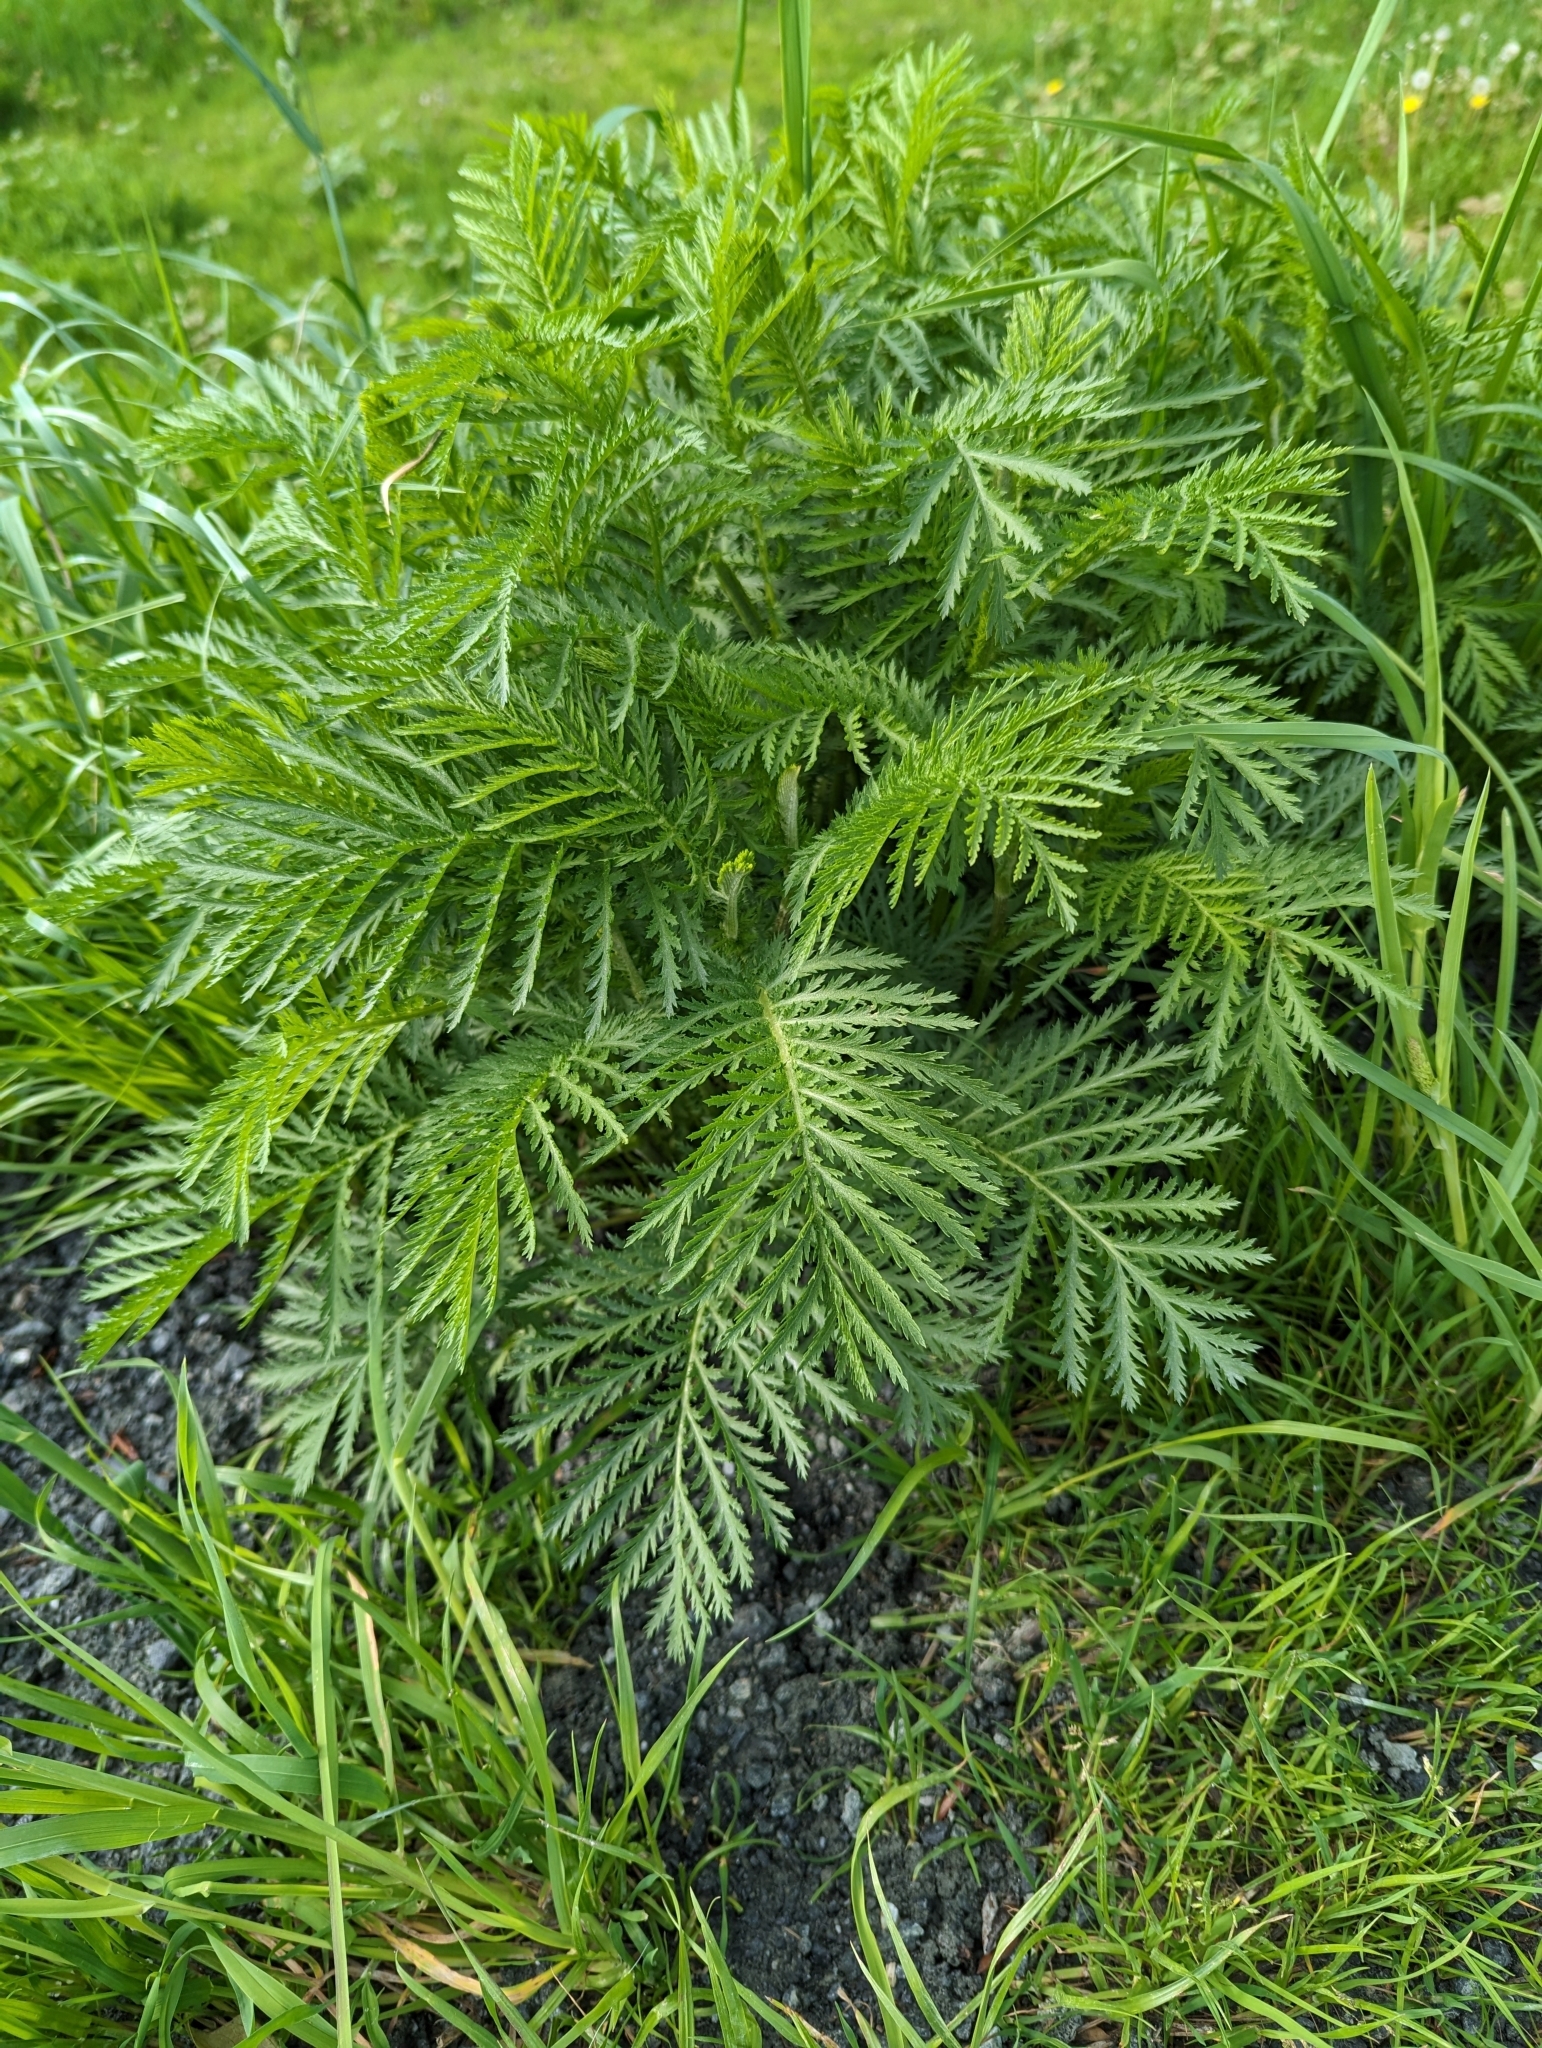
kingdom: Plantae
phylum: Tracheophyta
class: Magnoliopsida
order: Asterales
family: Asteraceae
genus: Tanacetum
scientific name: Tanacetum vulgare
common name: Common tansy
